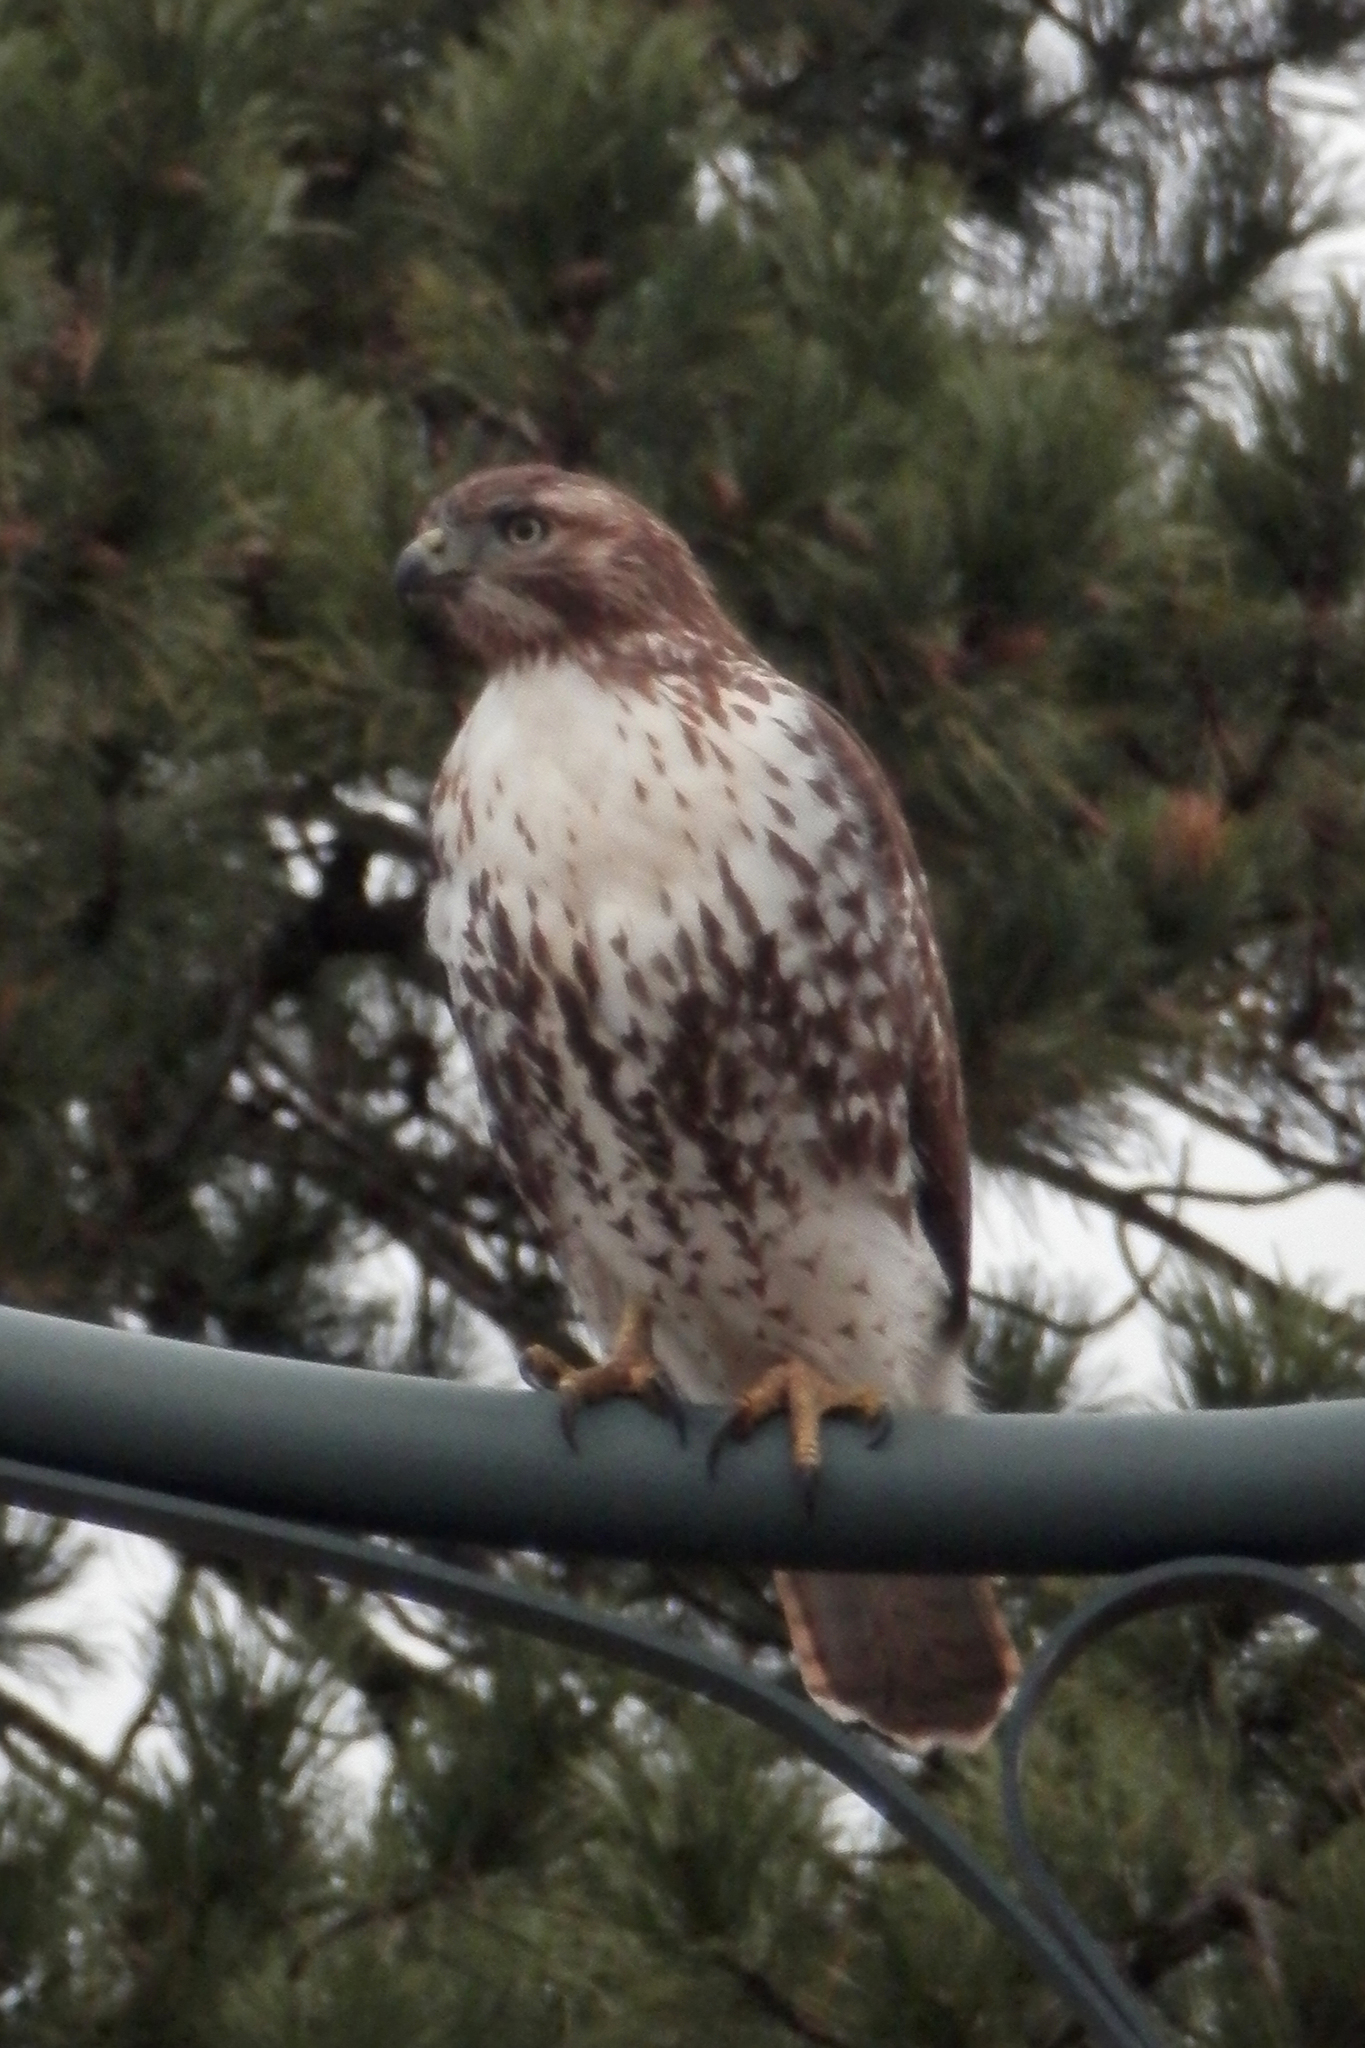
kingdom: Animalia
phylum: Chordata
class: Aves
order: Accipitriformes
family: Accipitridae
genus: Buteo
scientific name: Buteo jamaicensis
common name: Red-tailed hawk
